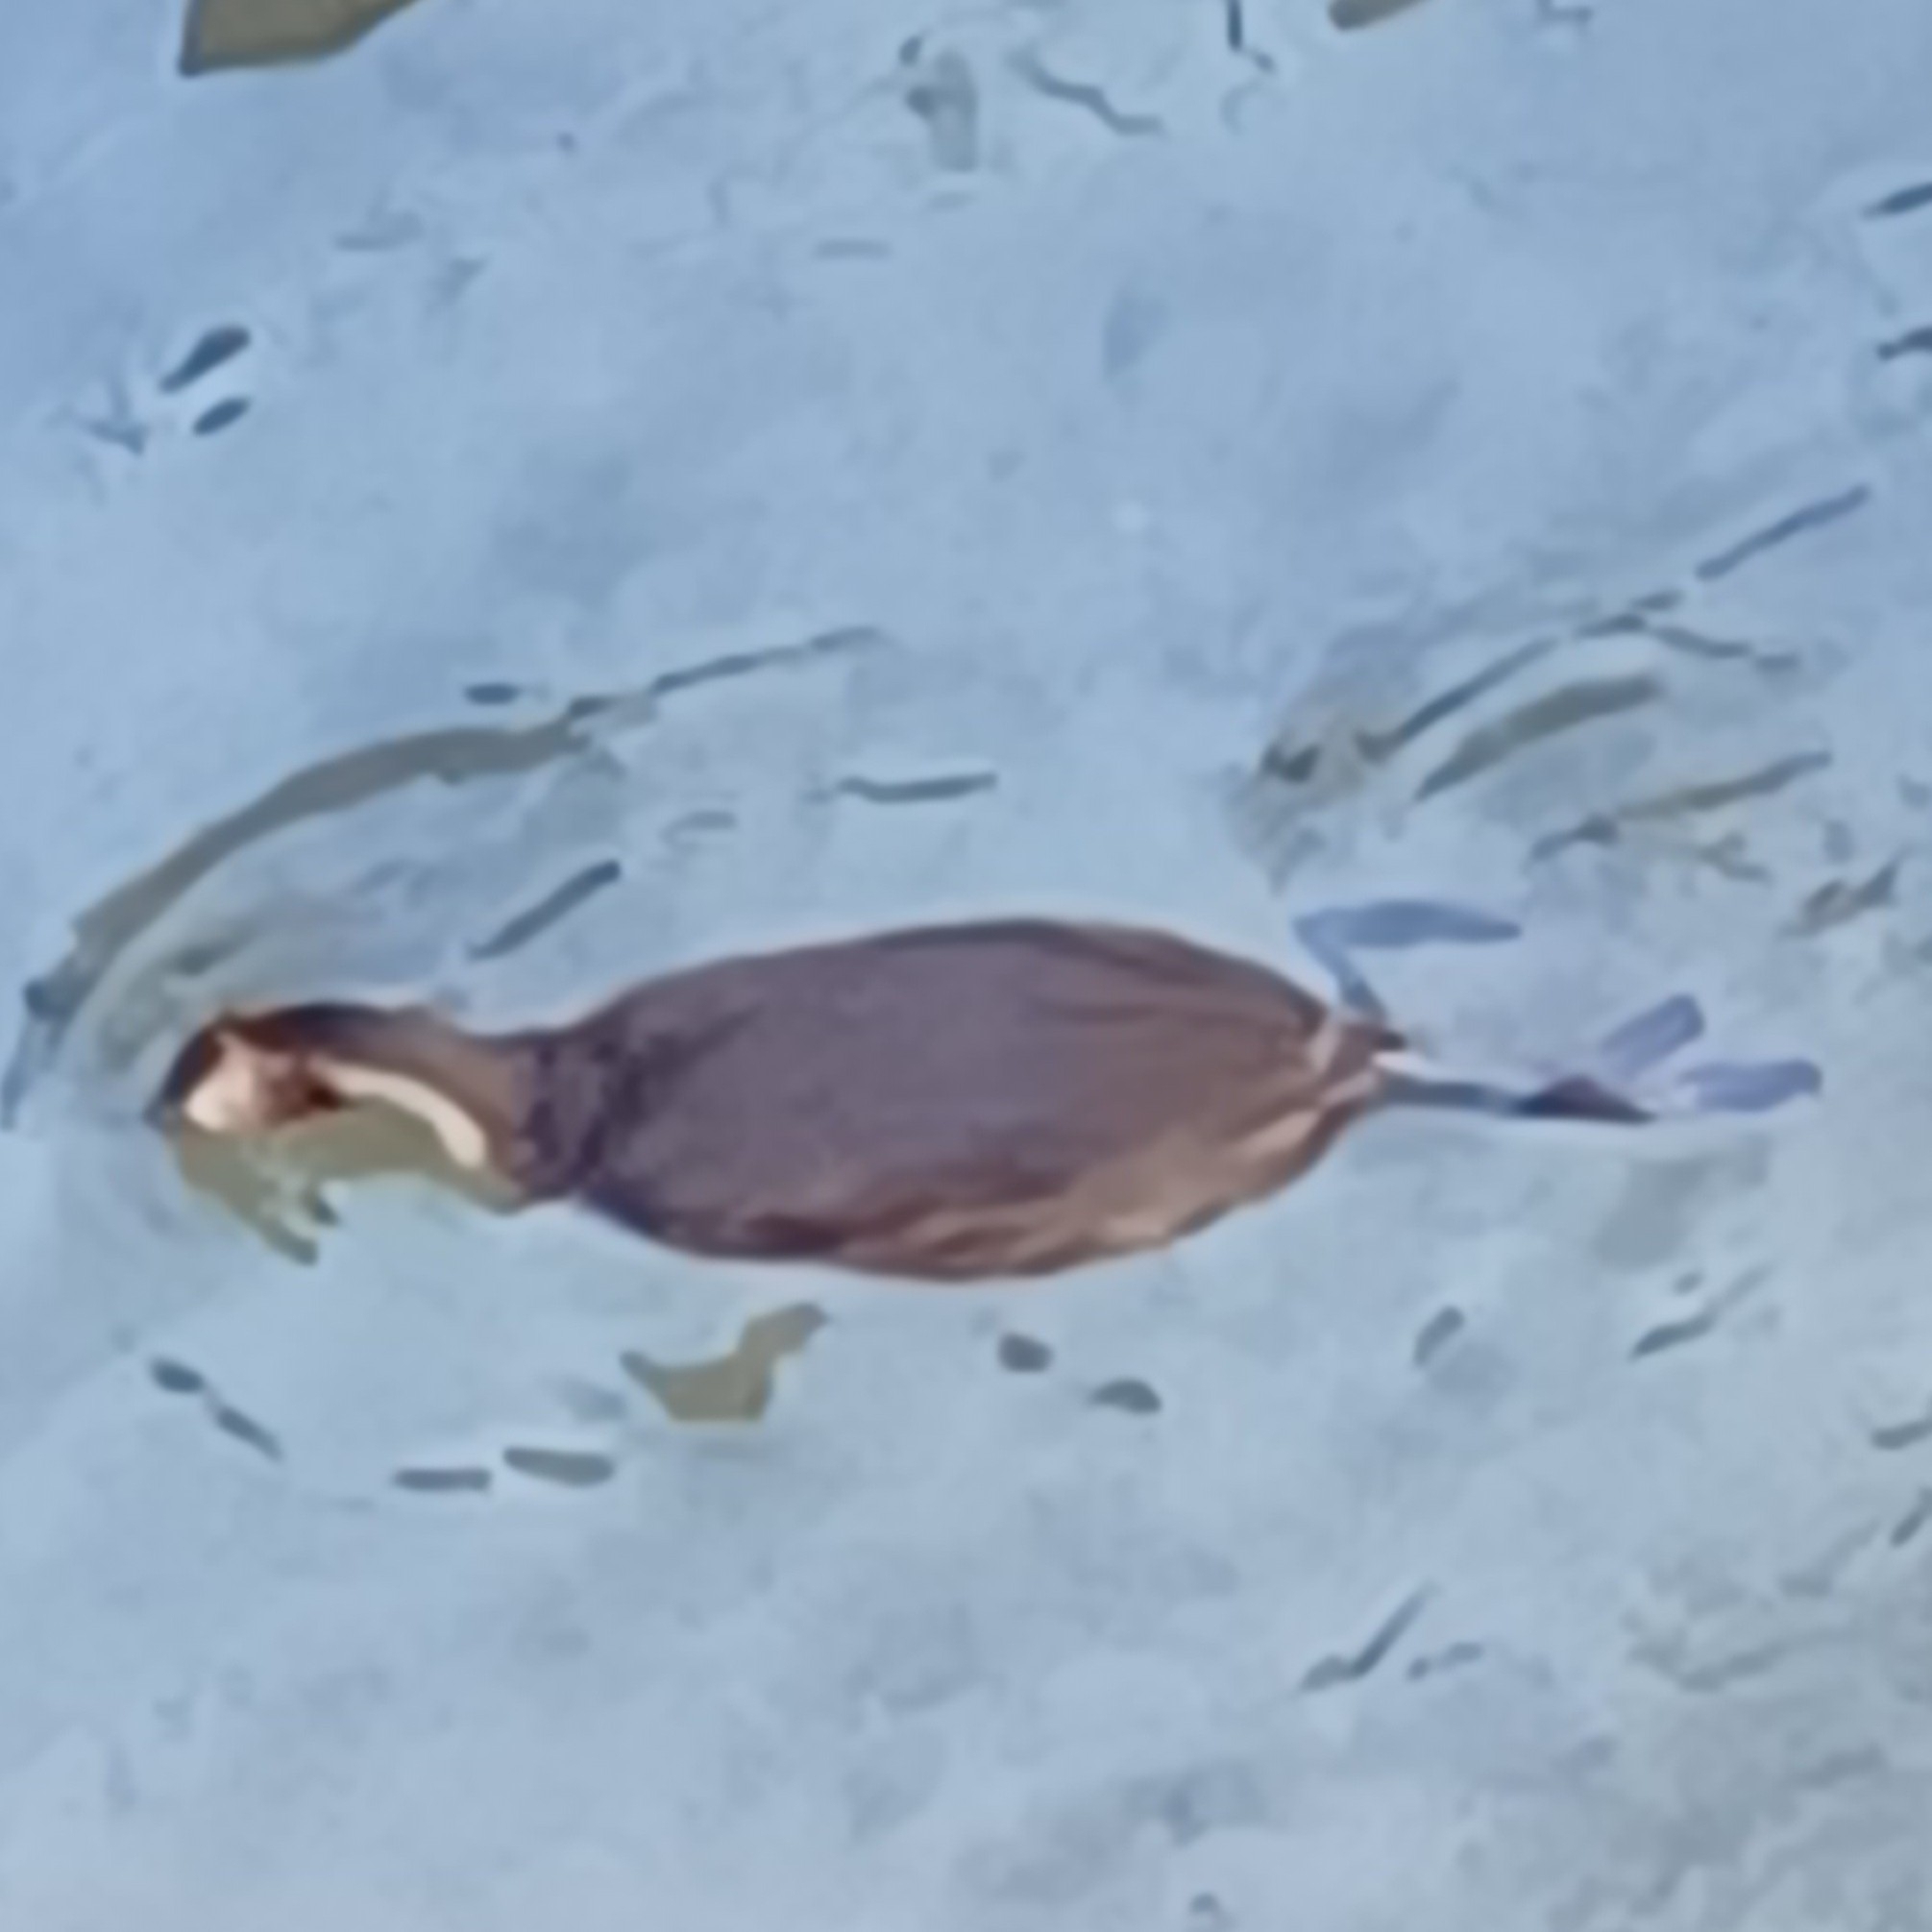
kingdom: Animalia
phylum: Chordata
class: Aves
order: Podicipediformes
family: Podicipedidae
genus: Podiceps
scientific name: Podiceps cristatus
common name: Great crested grebe
